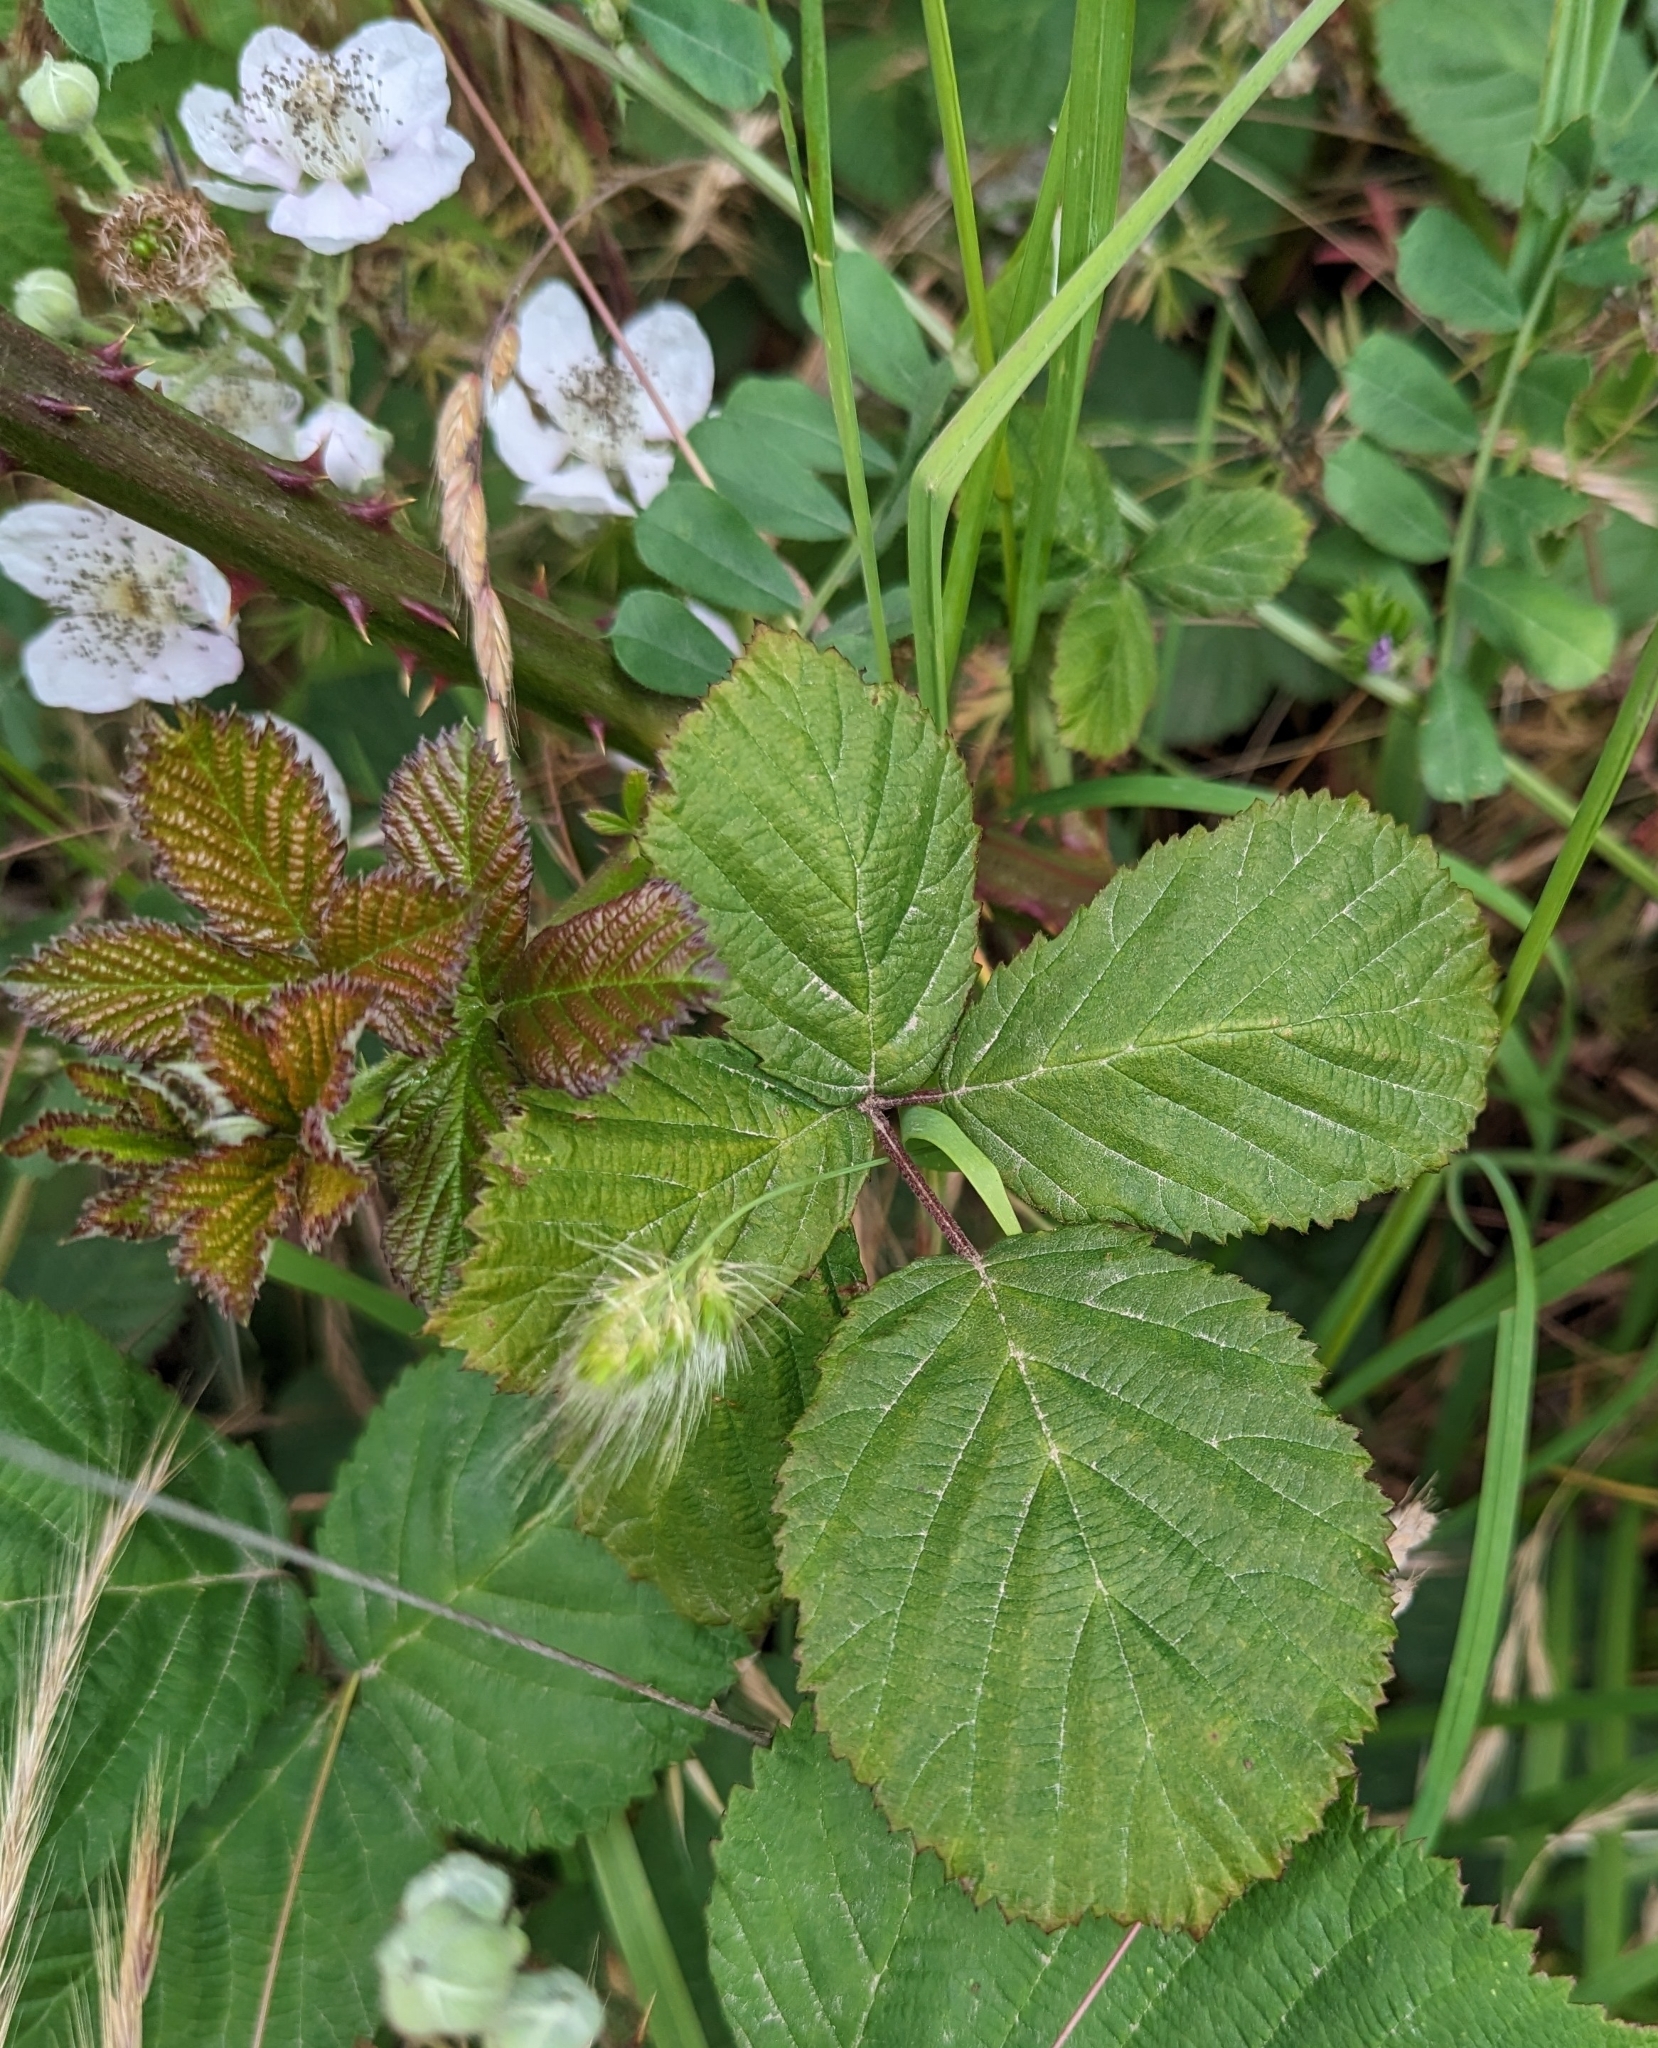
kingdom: Plantae
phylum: Tracheophyta
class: Magnoliopsida
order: Rosales
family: Rosaceae
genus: Rubus
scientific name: Rubus armeniacus
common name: Himalayan blackberry
